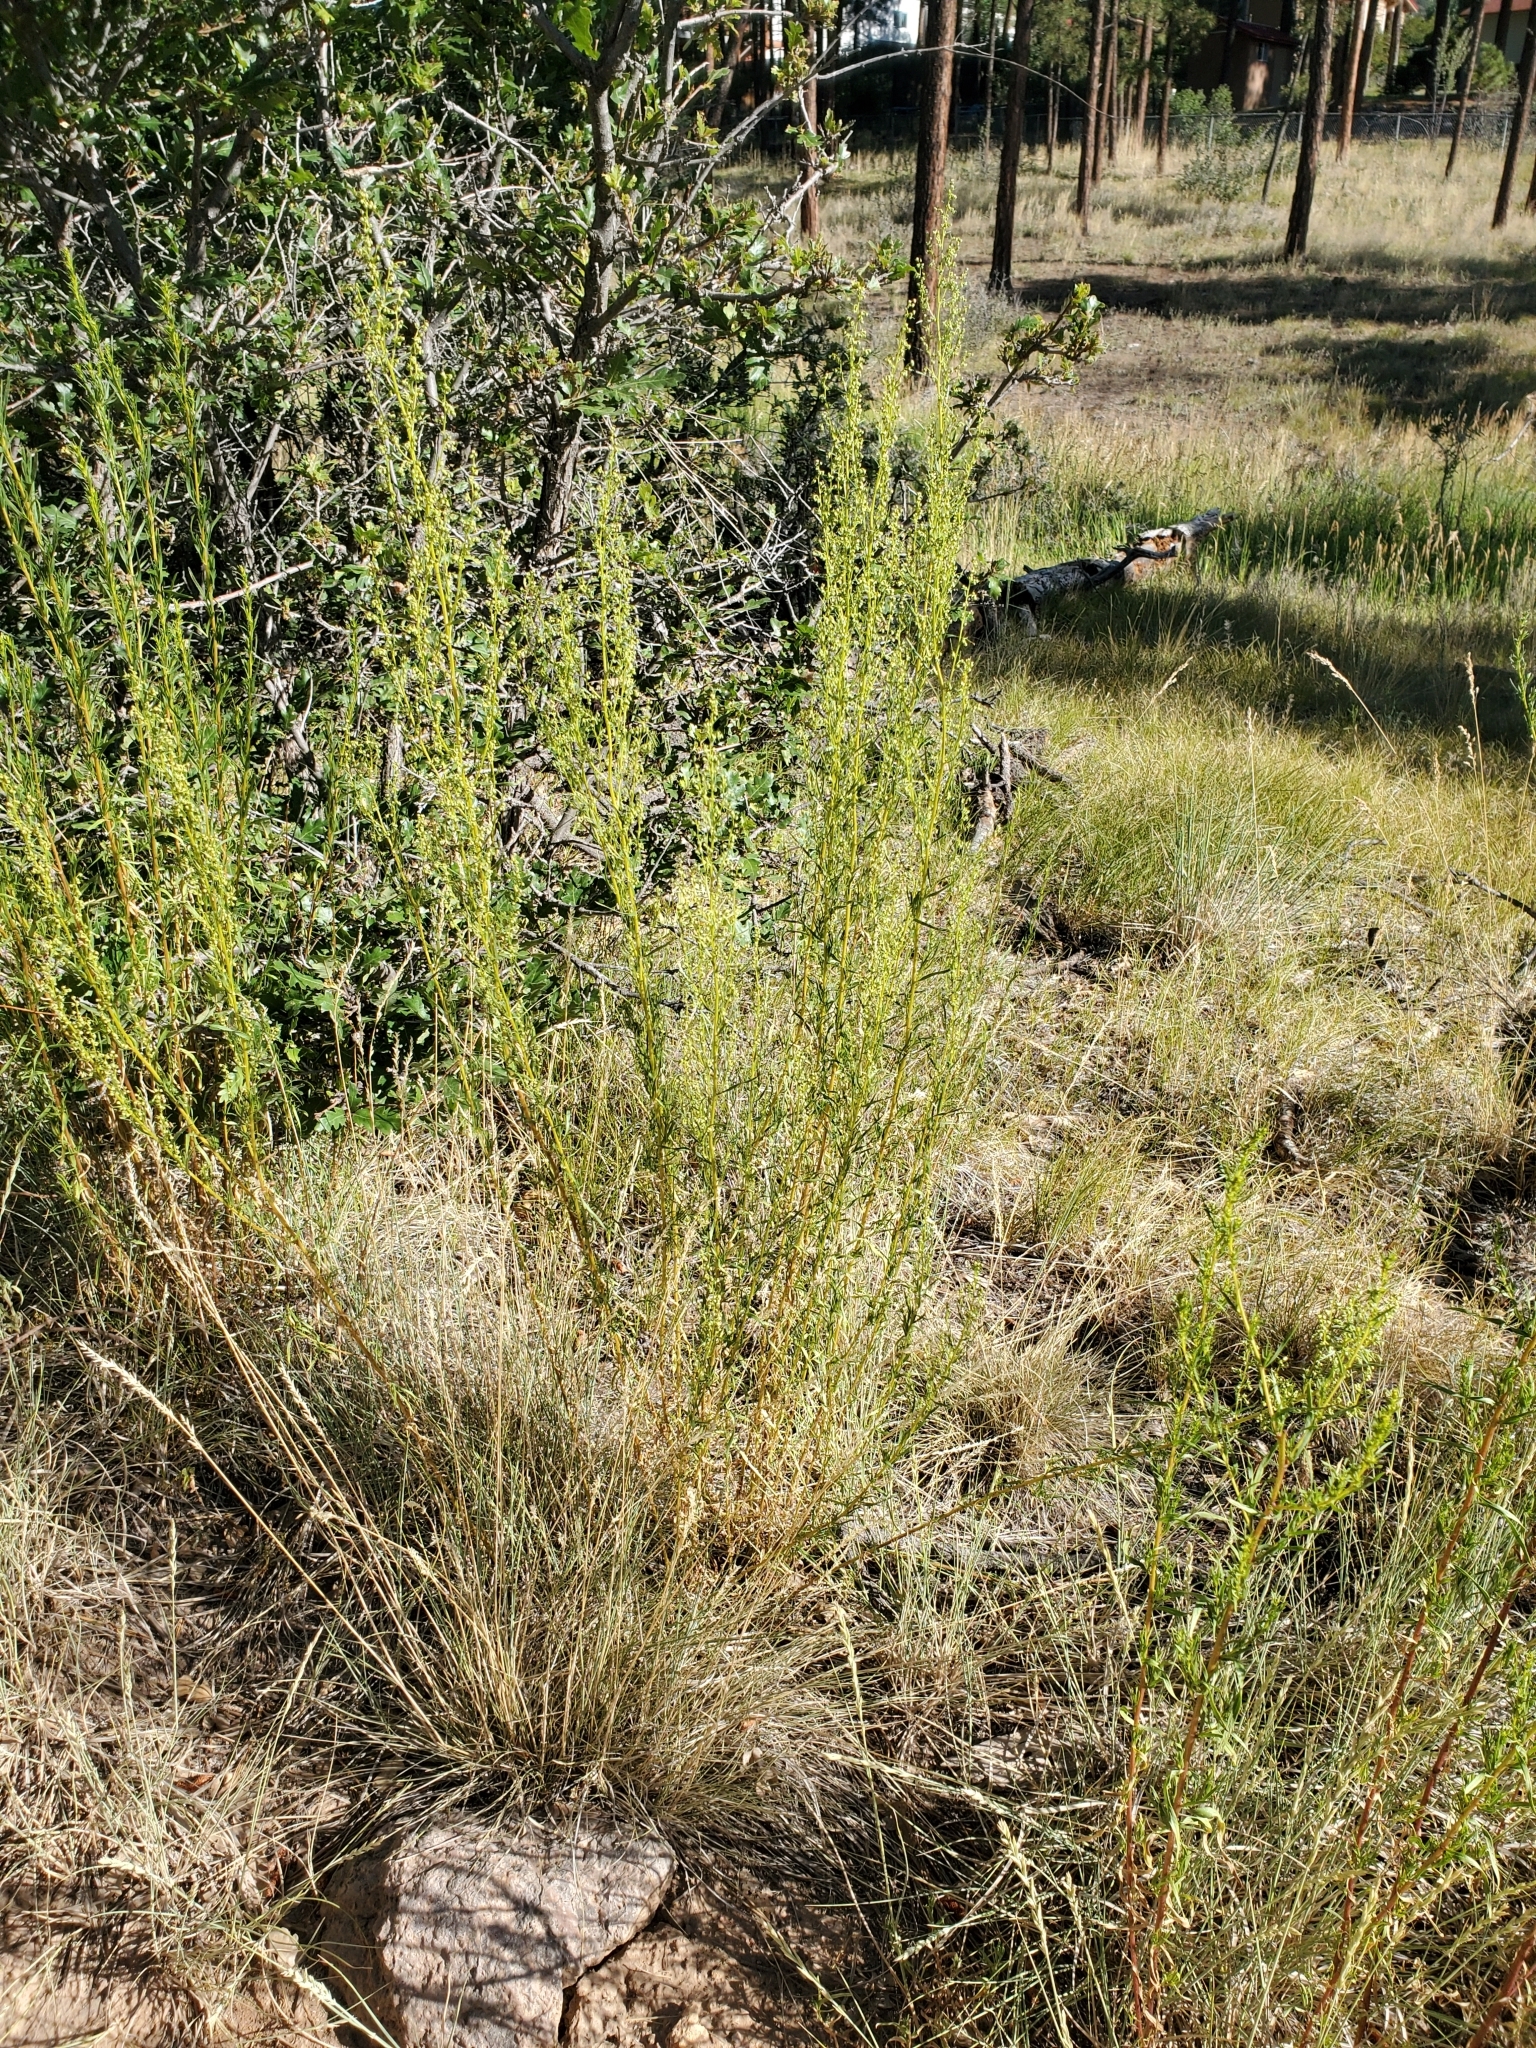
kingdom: Plantae
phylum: Tracheophyta
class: Magnoliopsida
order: Asterales
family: Asteraceae
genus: Artemisia
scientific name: Artemisia dracunculus
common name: Tarragon
